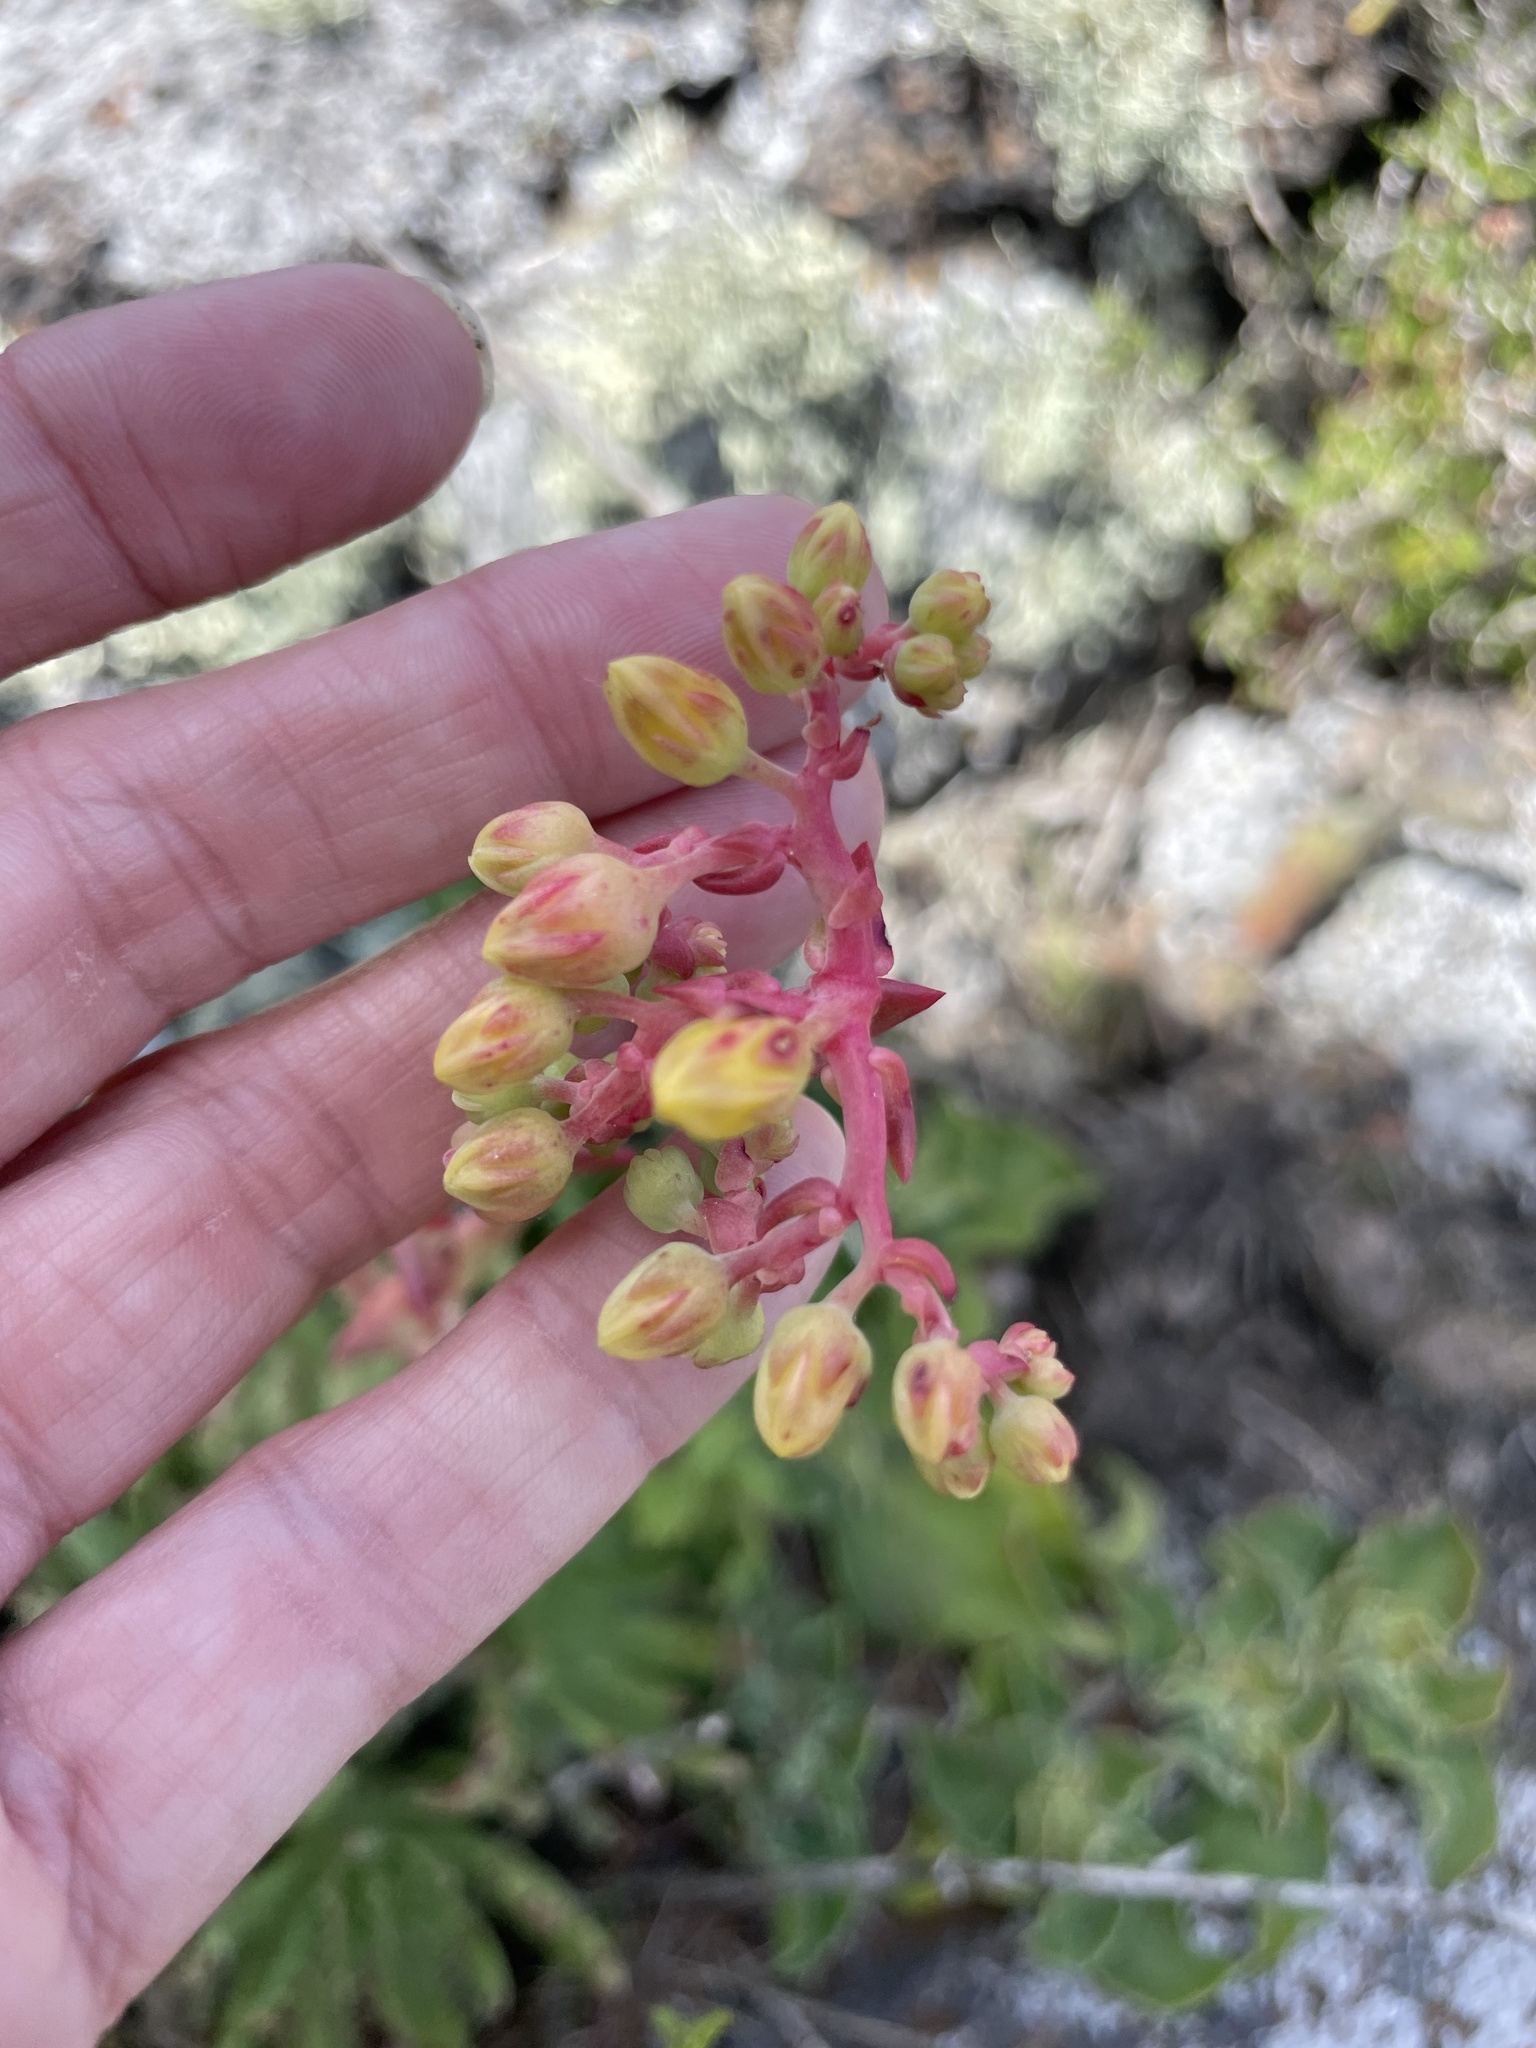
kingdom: Plantae
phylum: Tracheophyta
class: Magnoliopsida
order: Saxifragales
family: Crassulaceae
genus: Dudleya
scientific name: Dudleya cultrata
